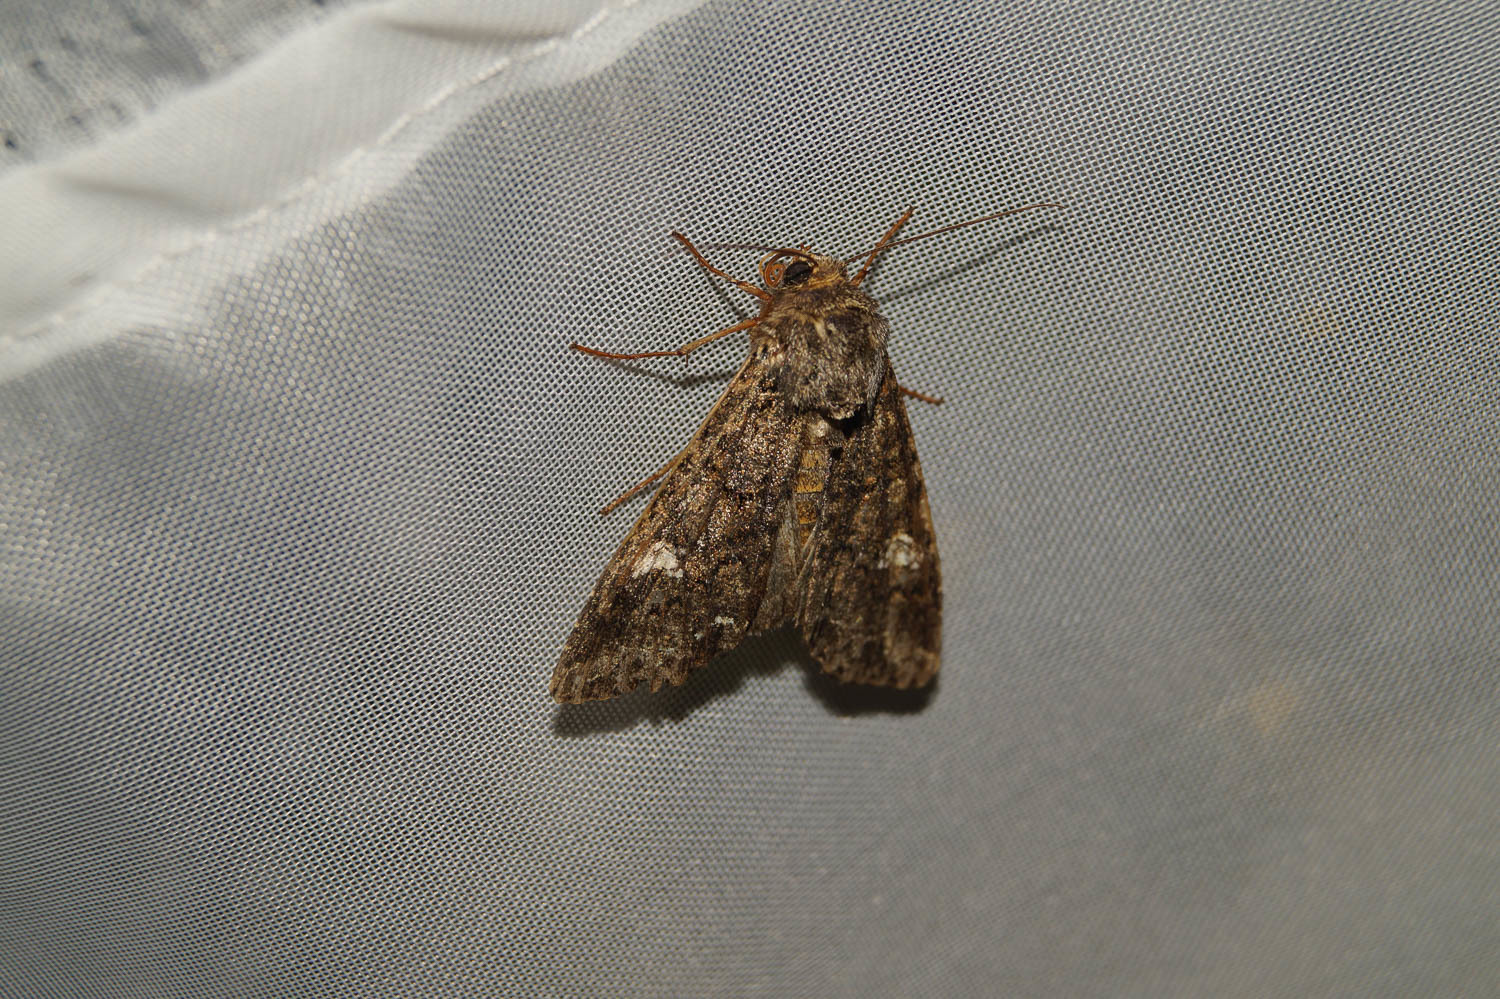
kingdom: Animalia
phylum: Arthropoda
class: Insecta
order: Lepidoptera
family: Noctuidae
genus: Mamestra
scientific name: Mamestra brassicae
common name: Cabbage moth
